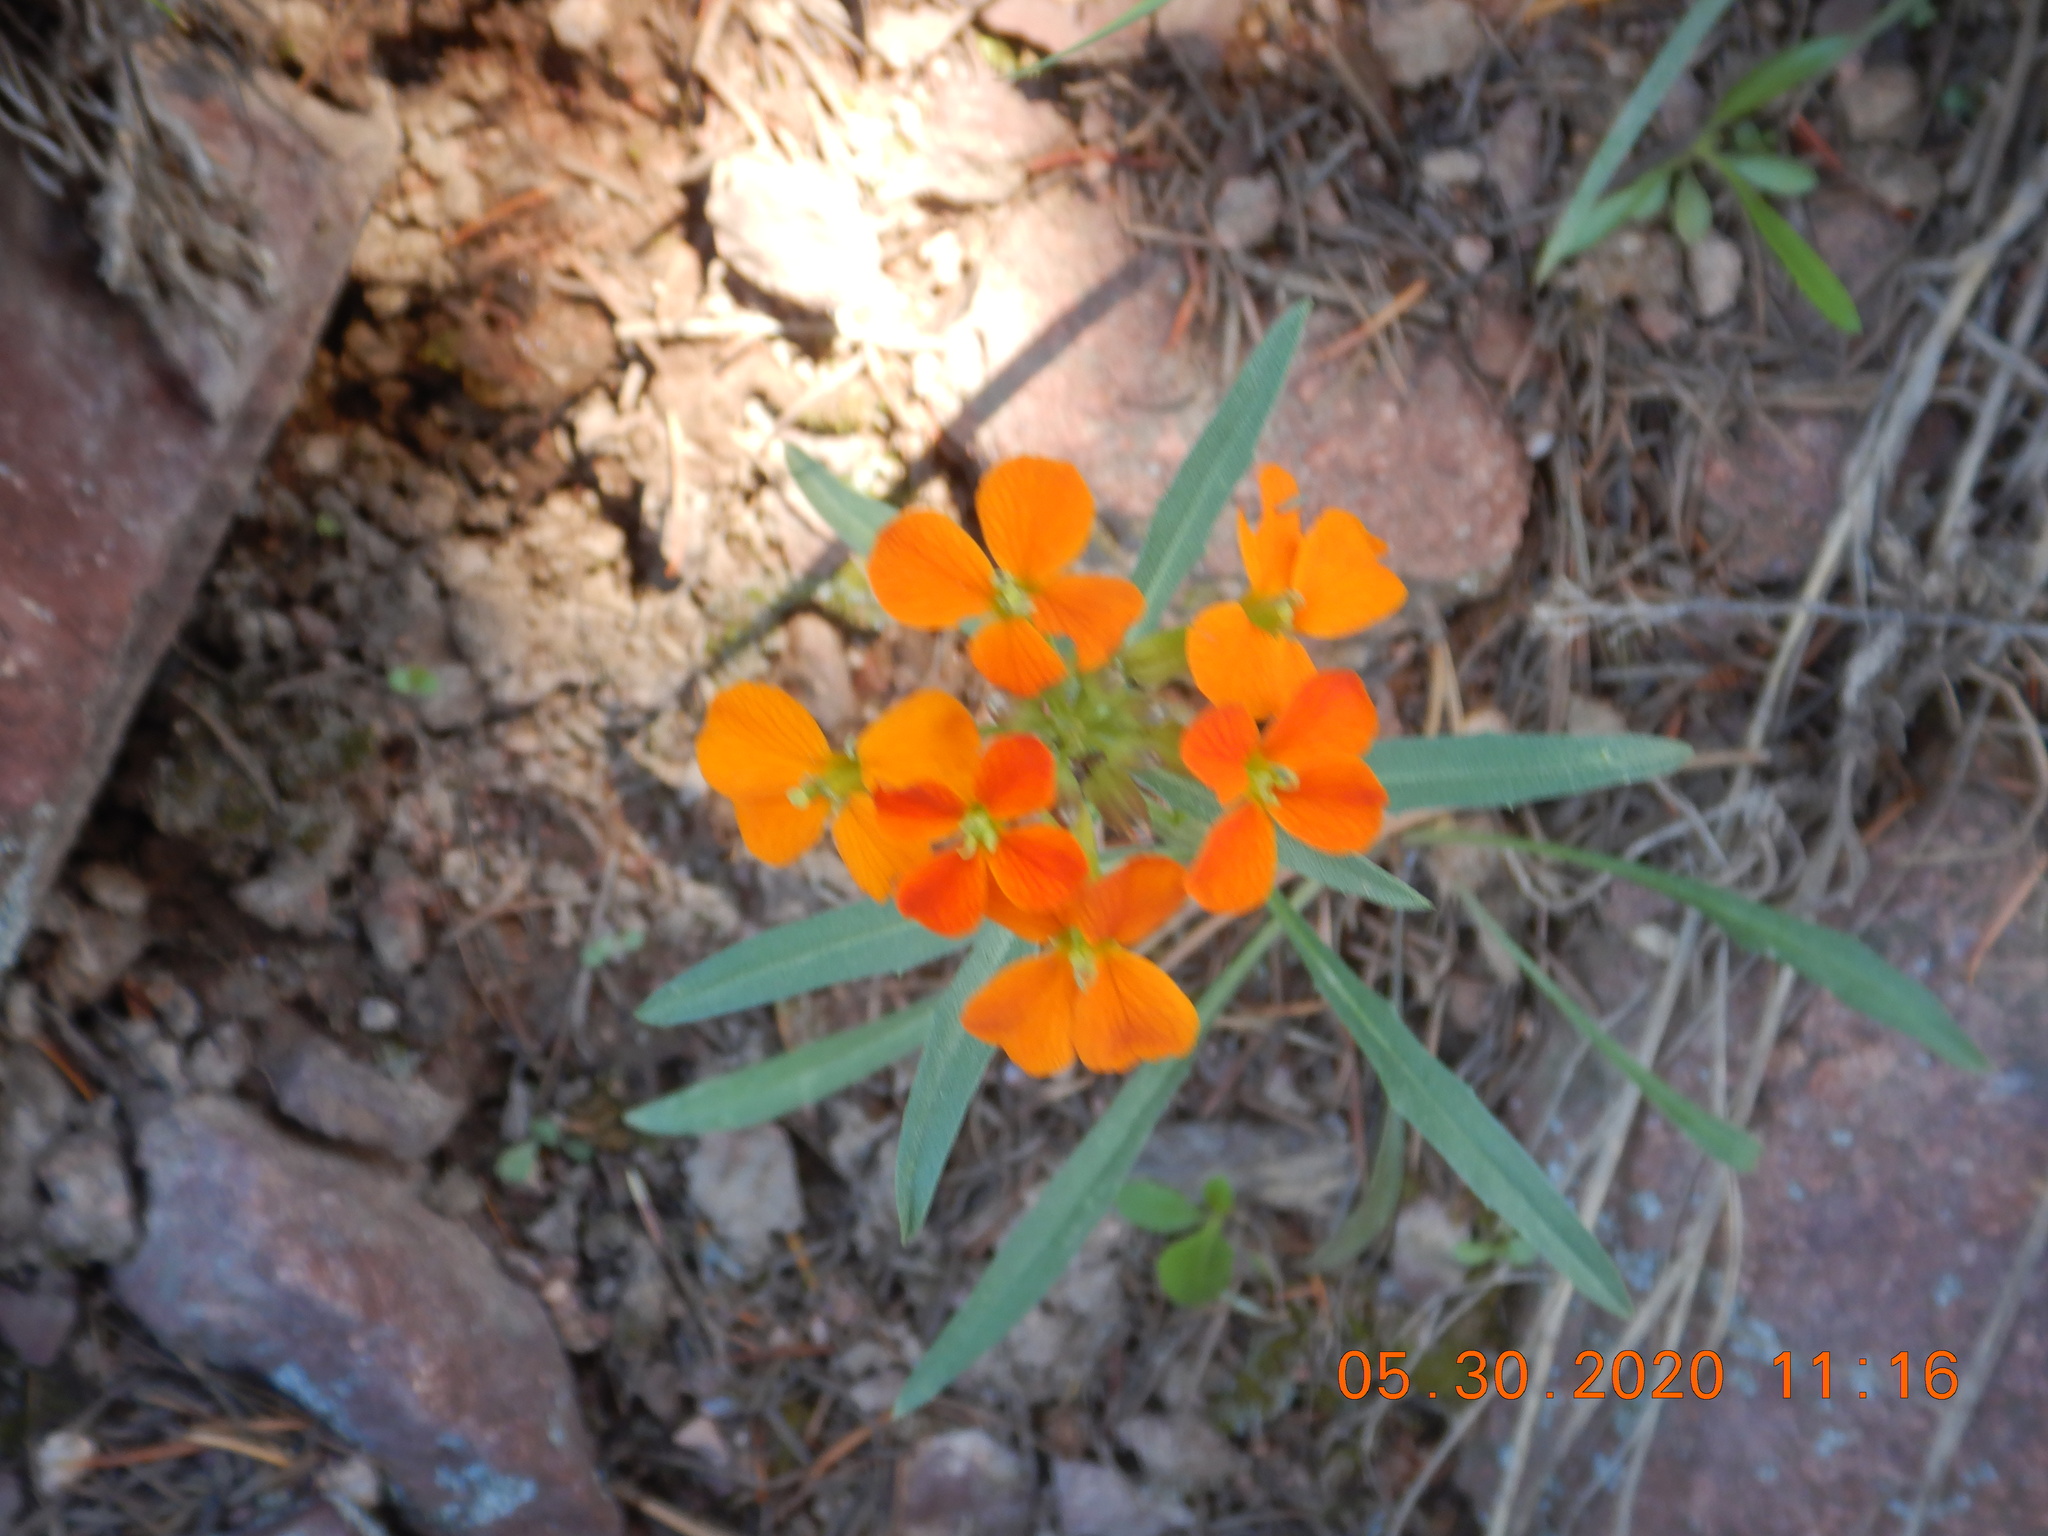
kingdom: Plantae
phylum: Tracheophyta
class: Magnoliopsida
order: Brassicales
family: Brassicaceae
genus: Erysimum
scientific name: Erysimum capitatum
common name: Western wallflower
